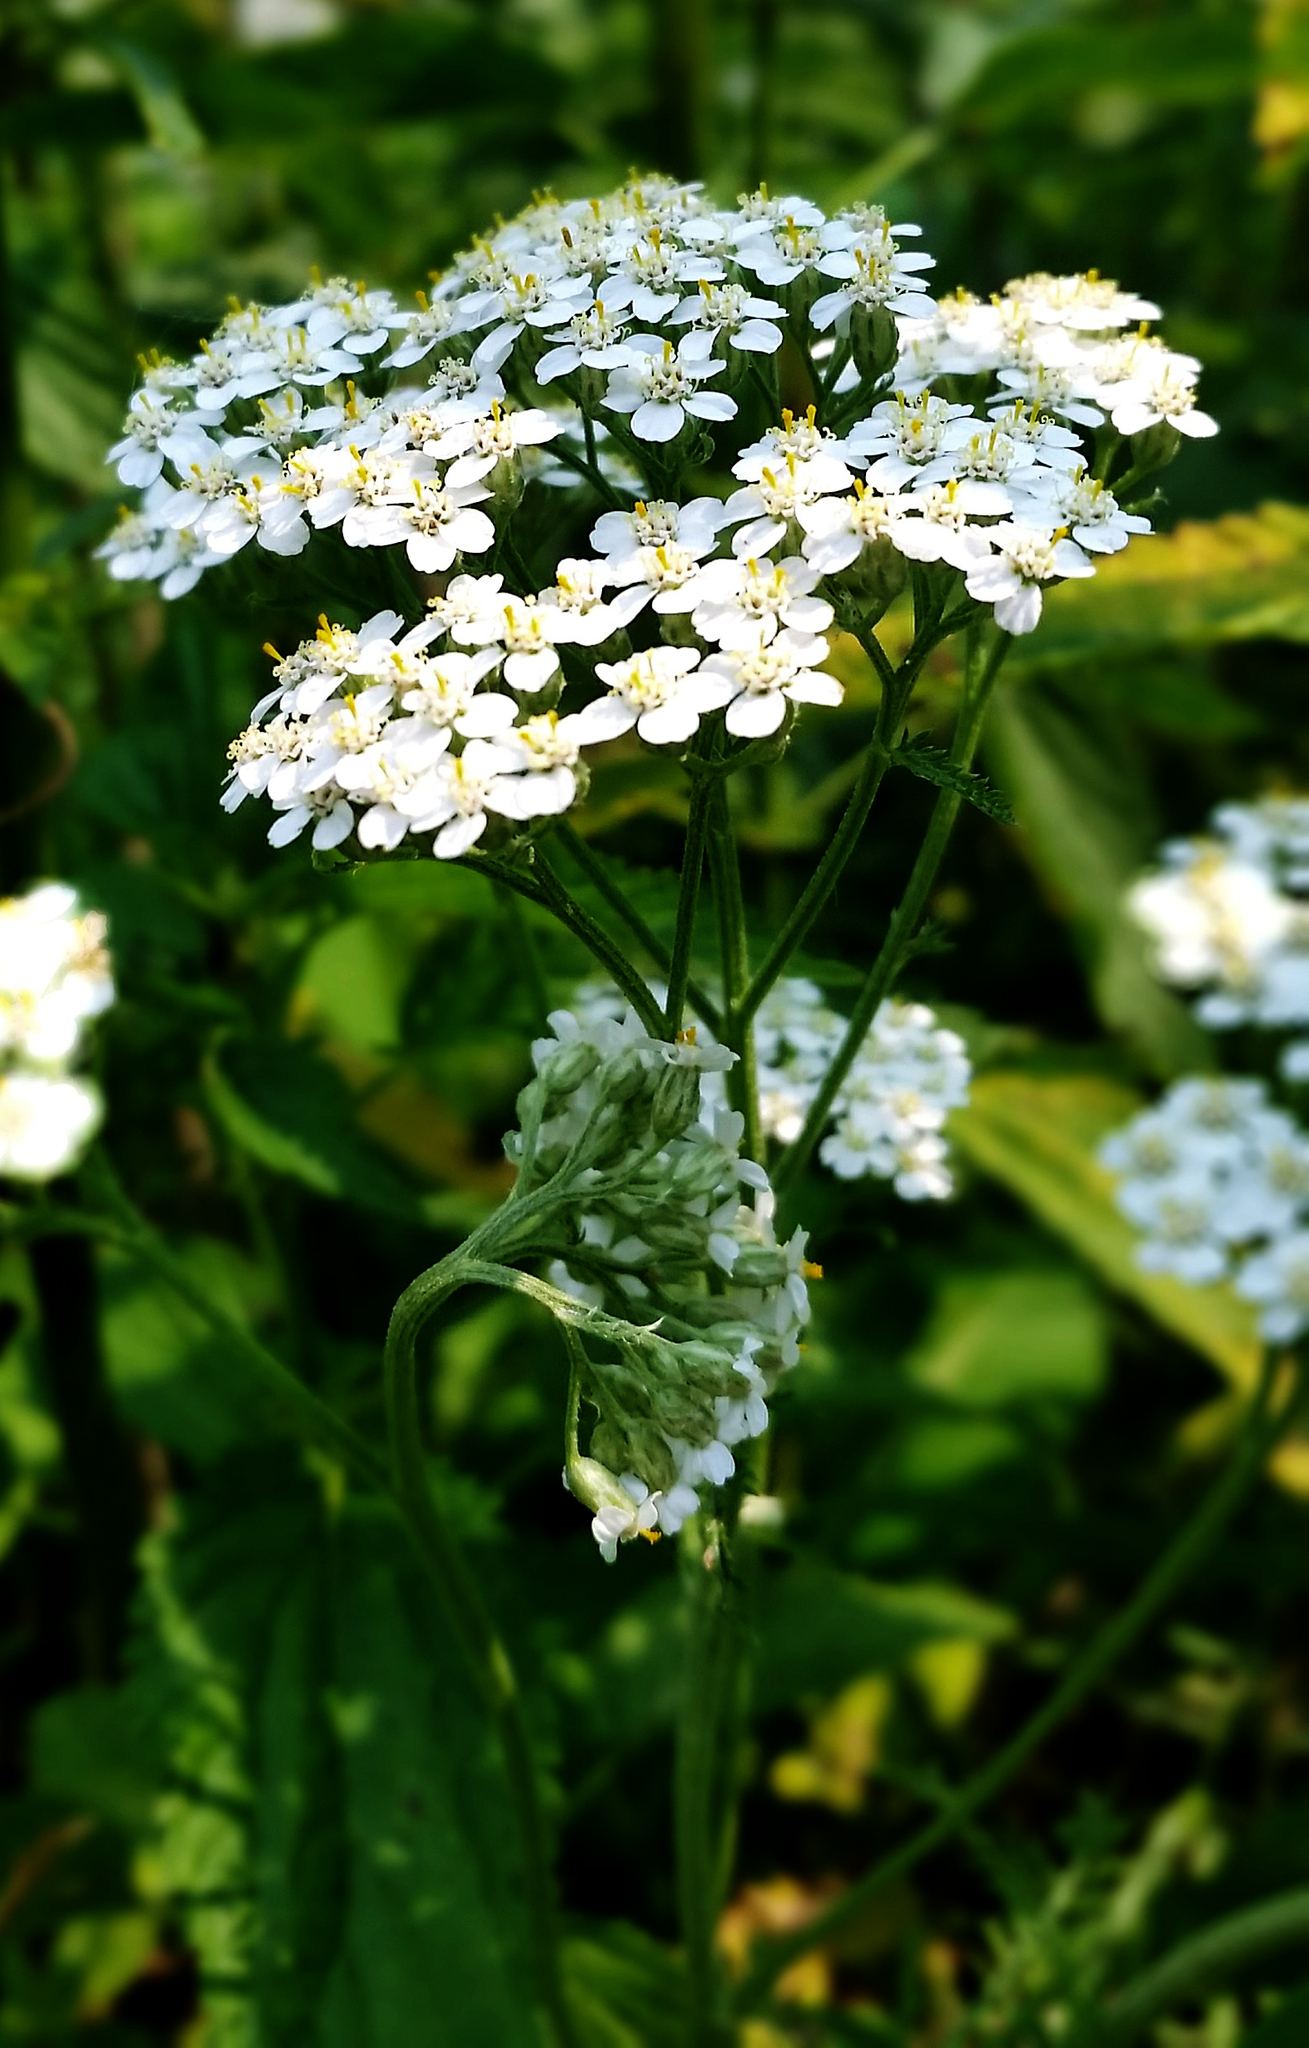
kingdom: Plantae
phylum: Tracheophyta
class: Magnoliopsida
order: Asterales
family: Asteraceae
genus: Achillea
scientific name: Achillea millefolium
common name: Yarrow
